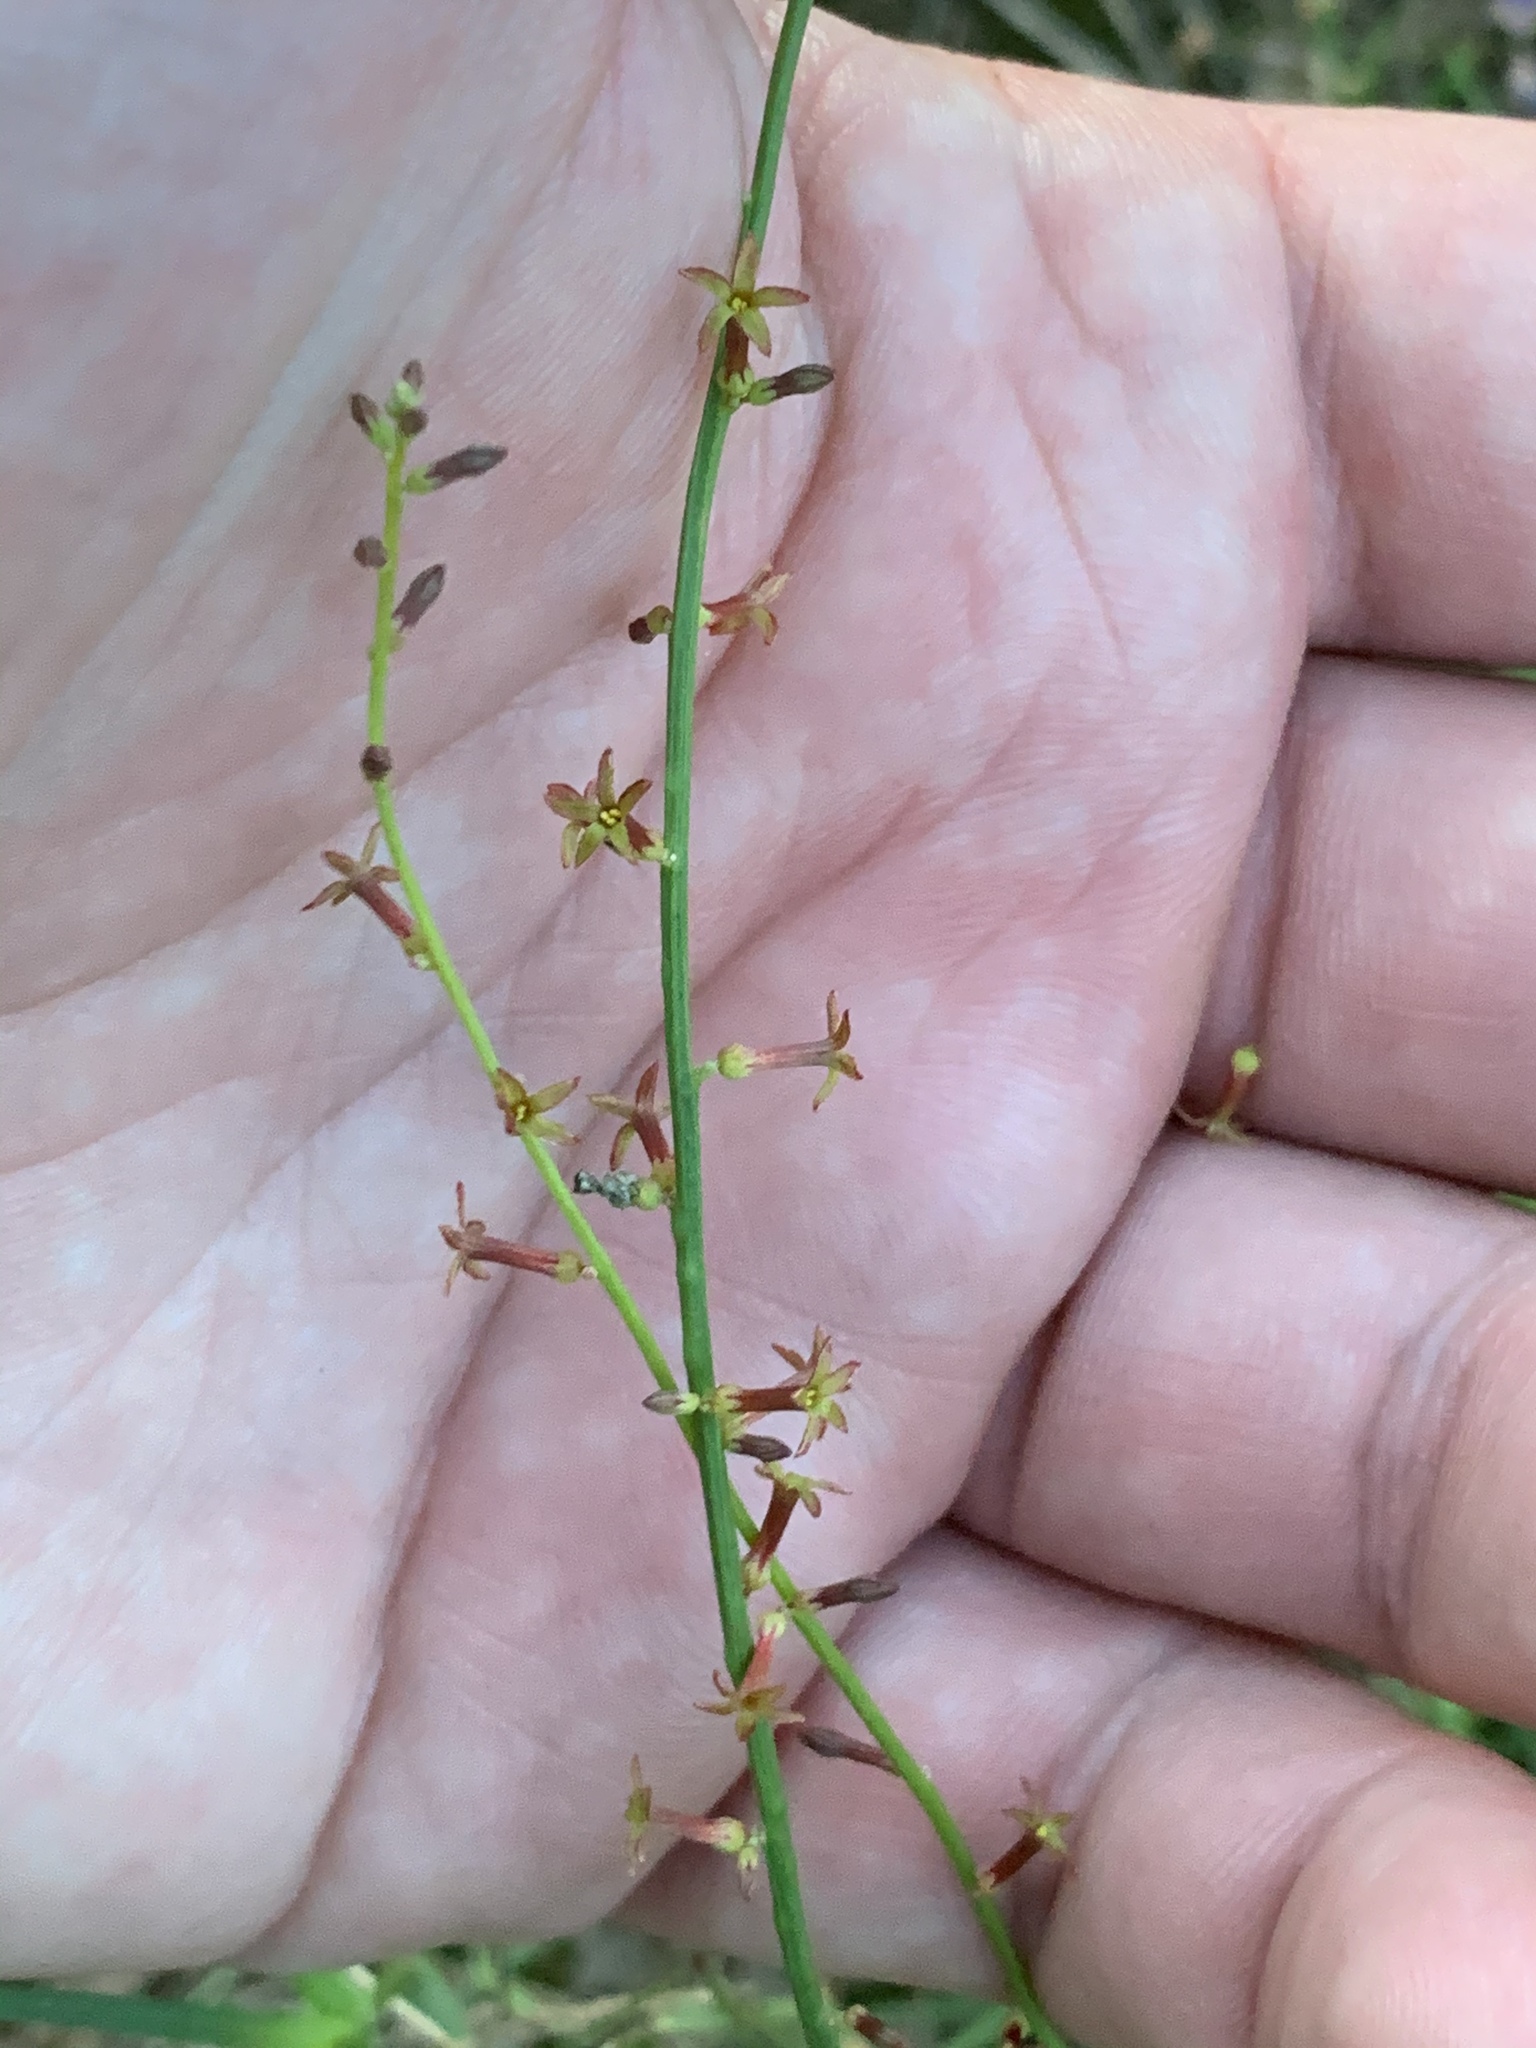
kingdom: Plantae
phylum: Tracheophyta
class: Magnoliopsida
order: Celastrales
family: Celastraceae
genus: Stackhousia
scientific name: Stackhousia viminea
